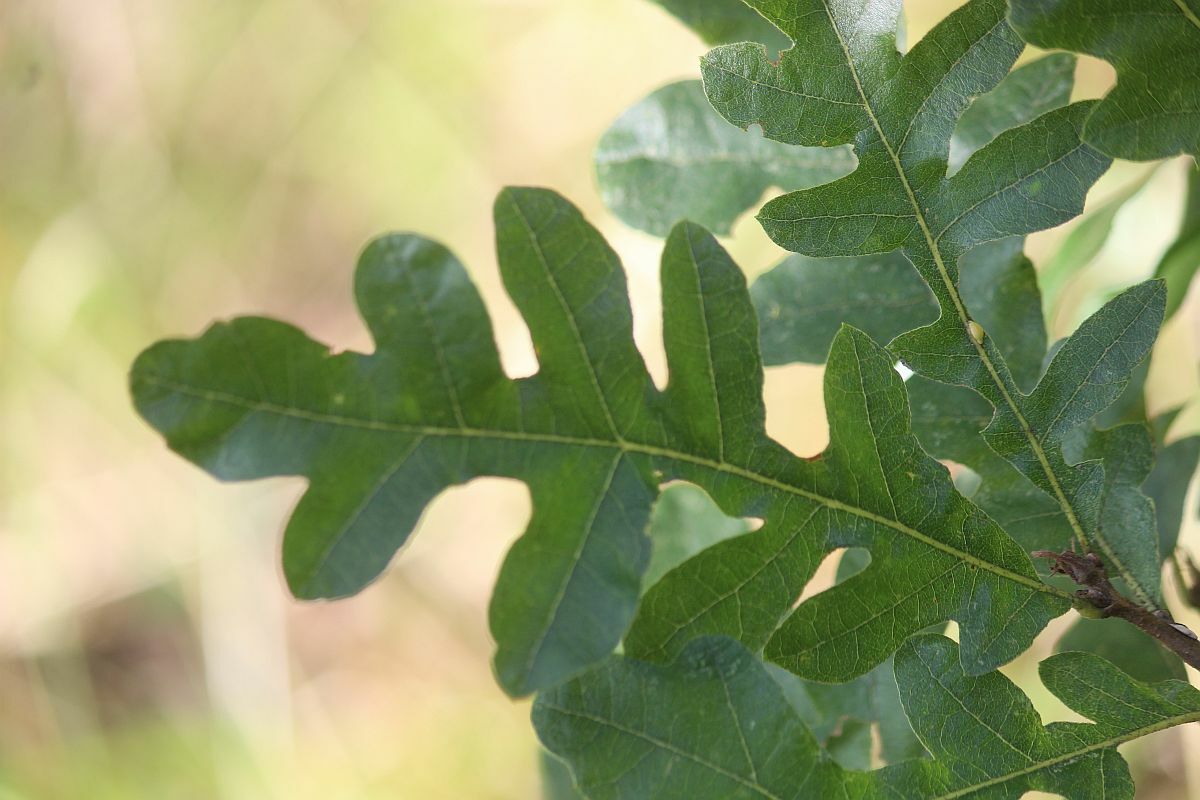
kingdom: Plantae
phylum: Tracheophyta
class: Magnoliopsida
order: Fagales
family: Fagaceae
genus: Quercus
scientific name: Quercus cerris
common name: Turkey oak
